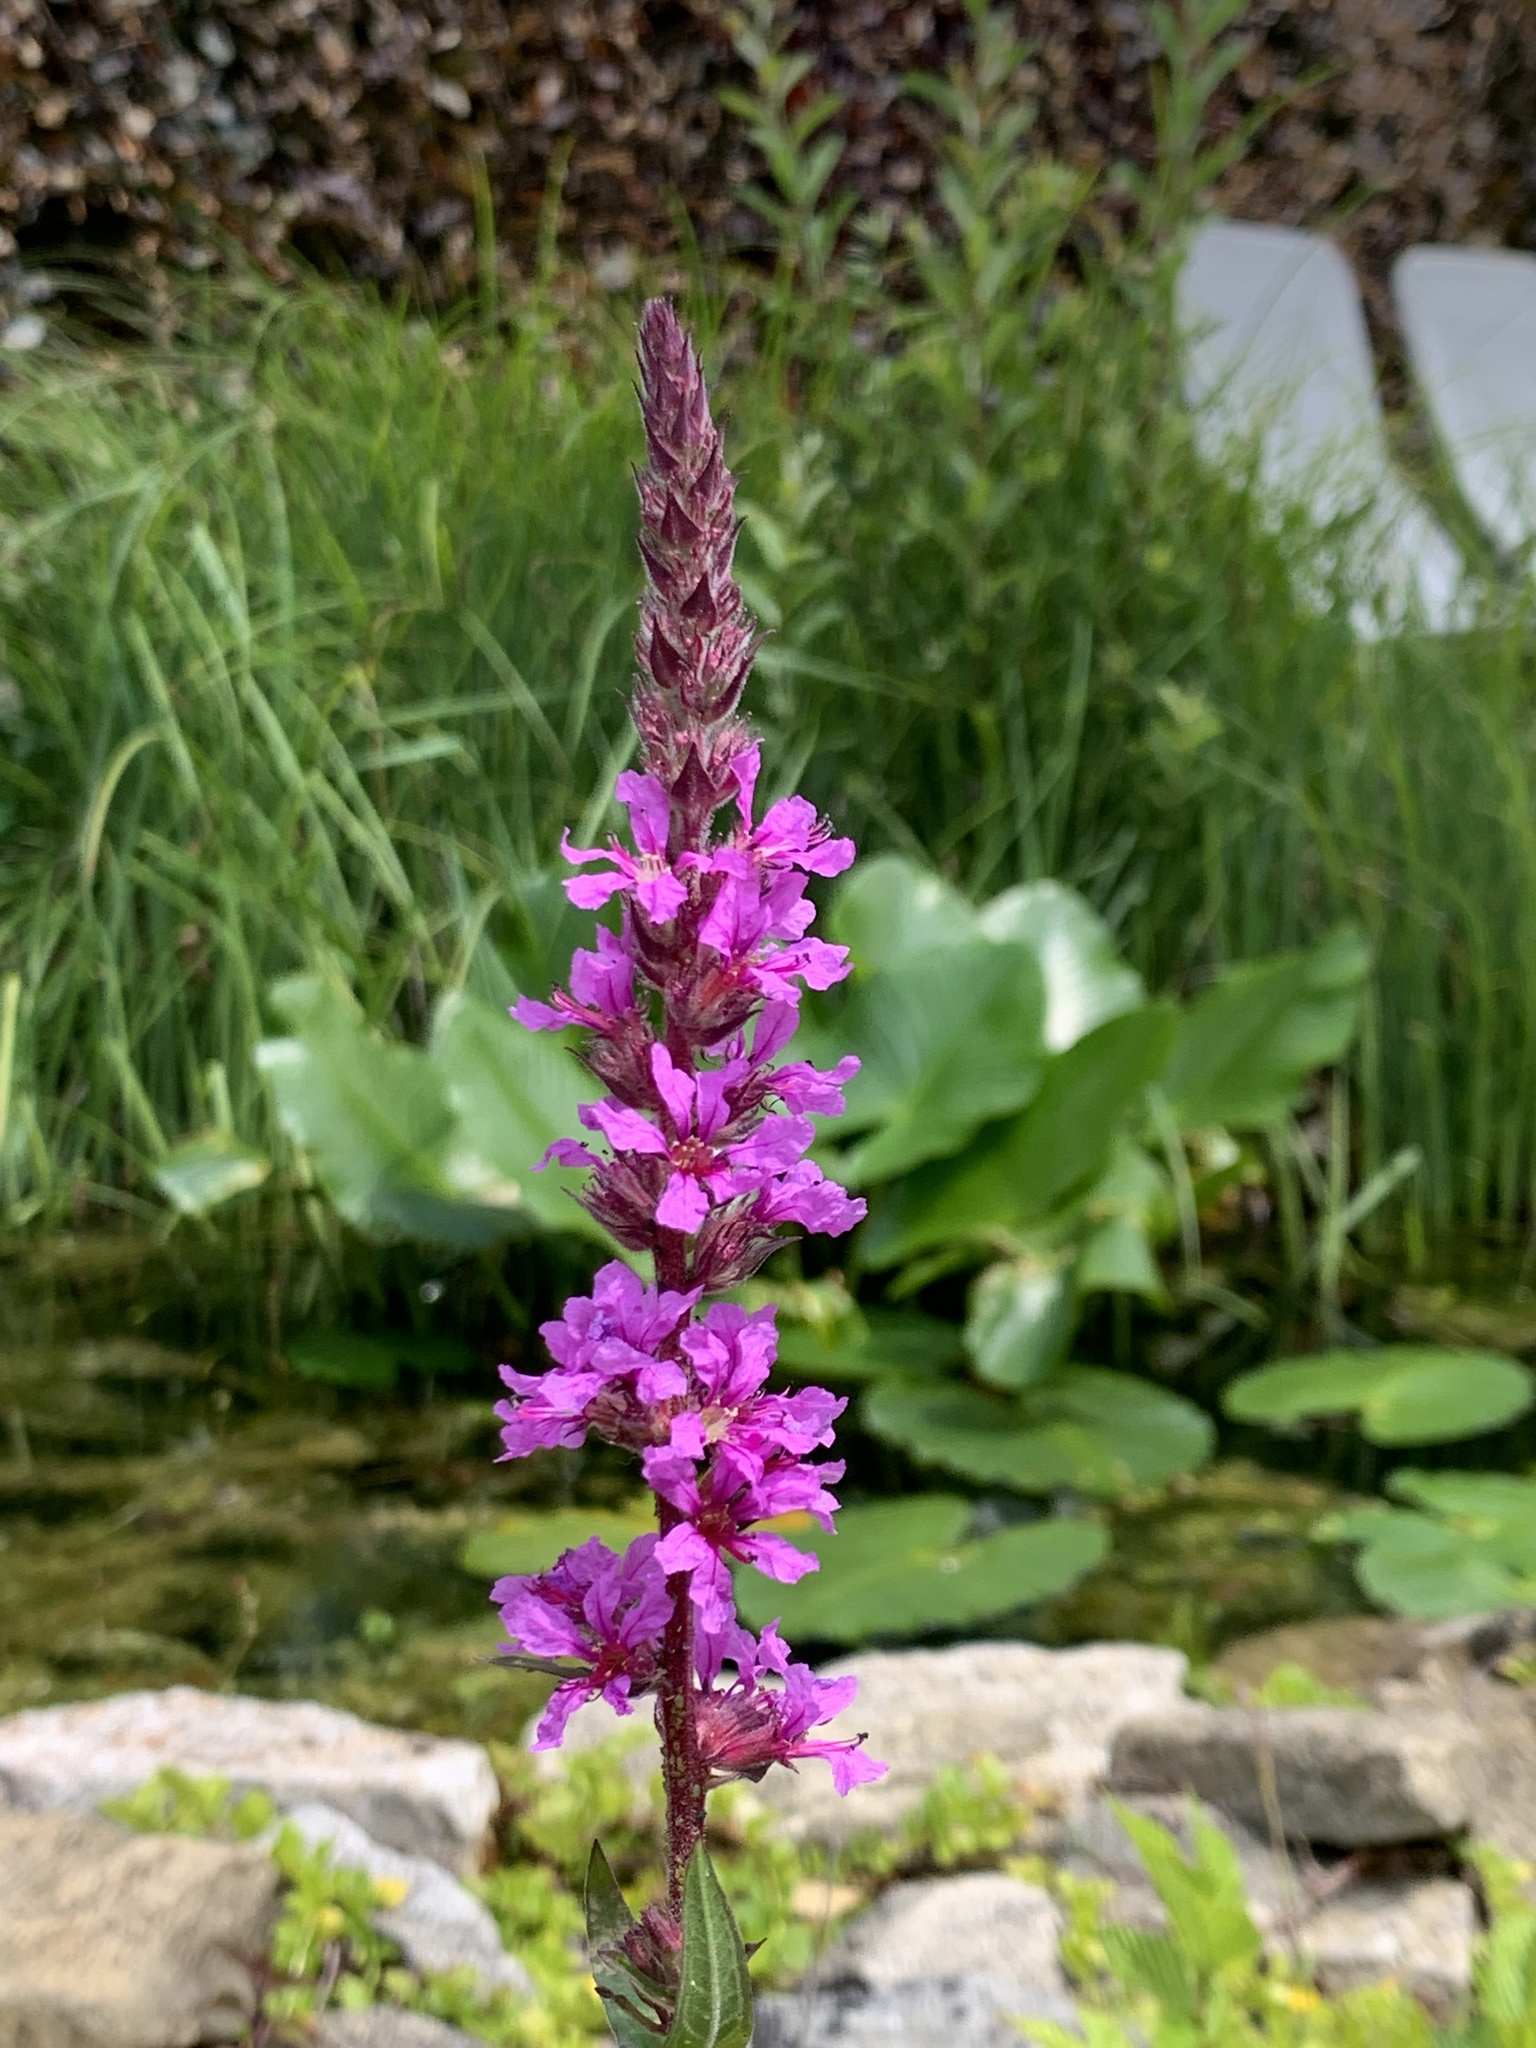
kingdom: Plantae
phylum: Tracheophyta
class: Magnoliopsida
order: Myrtales
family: Lythraceae
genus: Lythrum
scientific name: Lythrum salicaria
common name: Purple loosestrife
